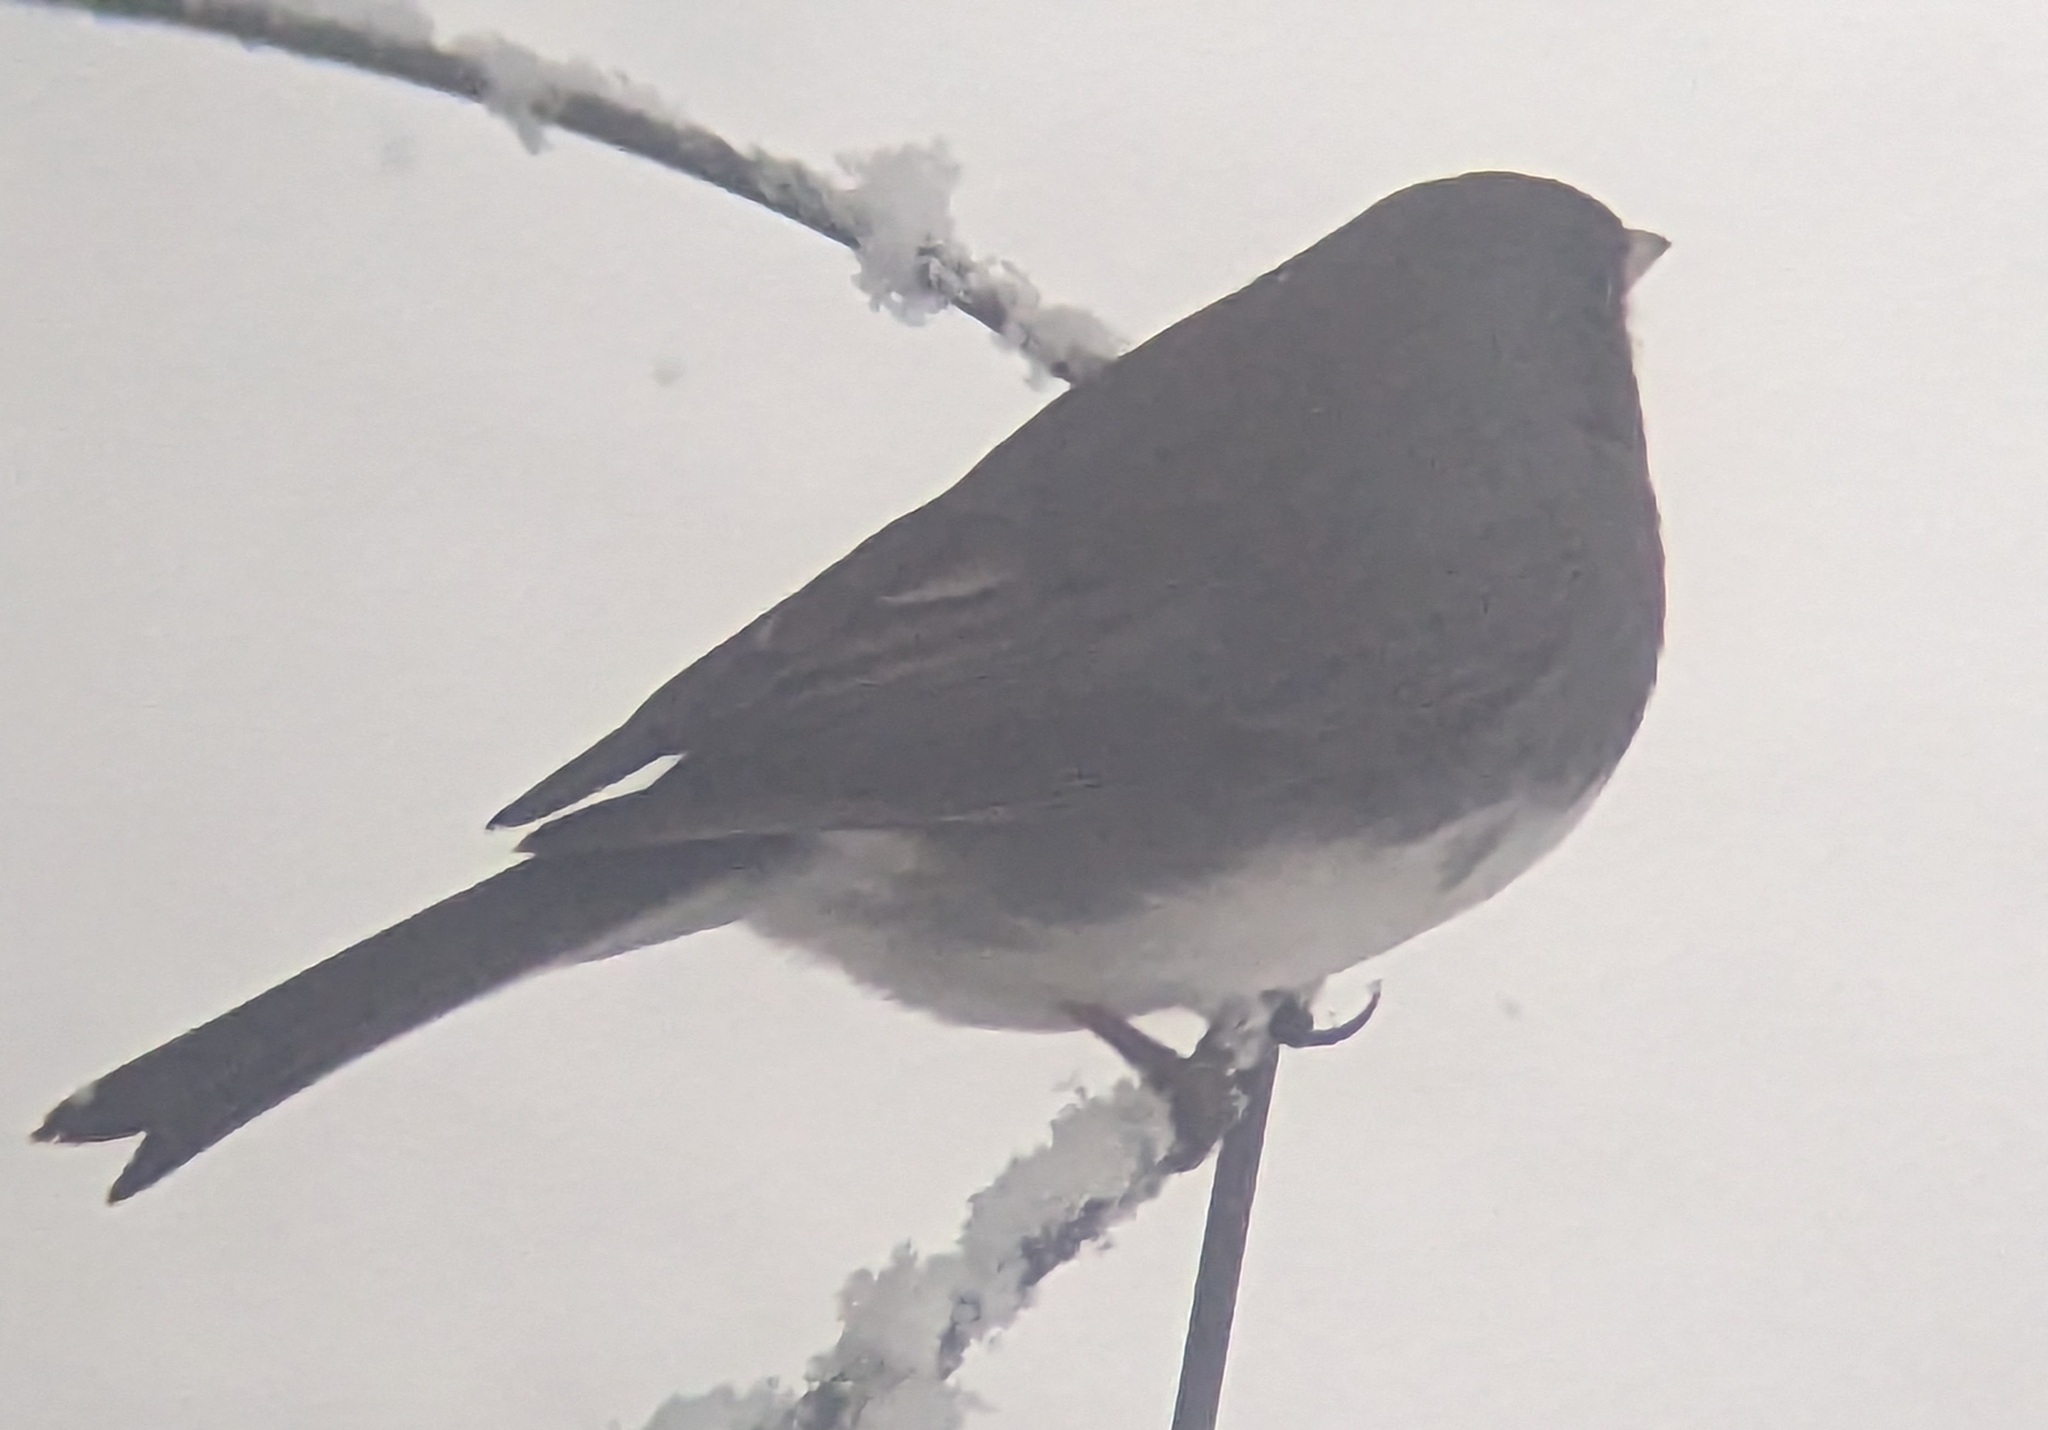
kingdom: Animalia
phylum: Chordata
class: Aves
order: Passeriformes
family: Passerellidae
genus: Junco
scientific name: Junco hyemalis
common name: Dark-eyed junco
